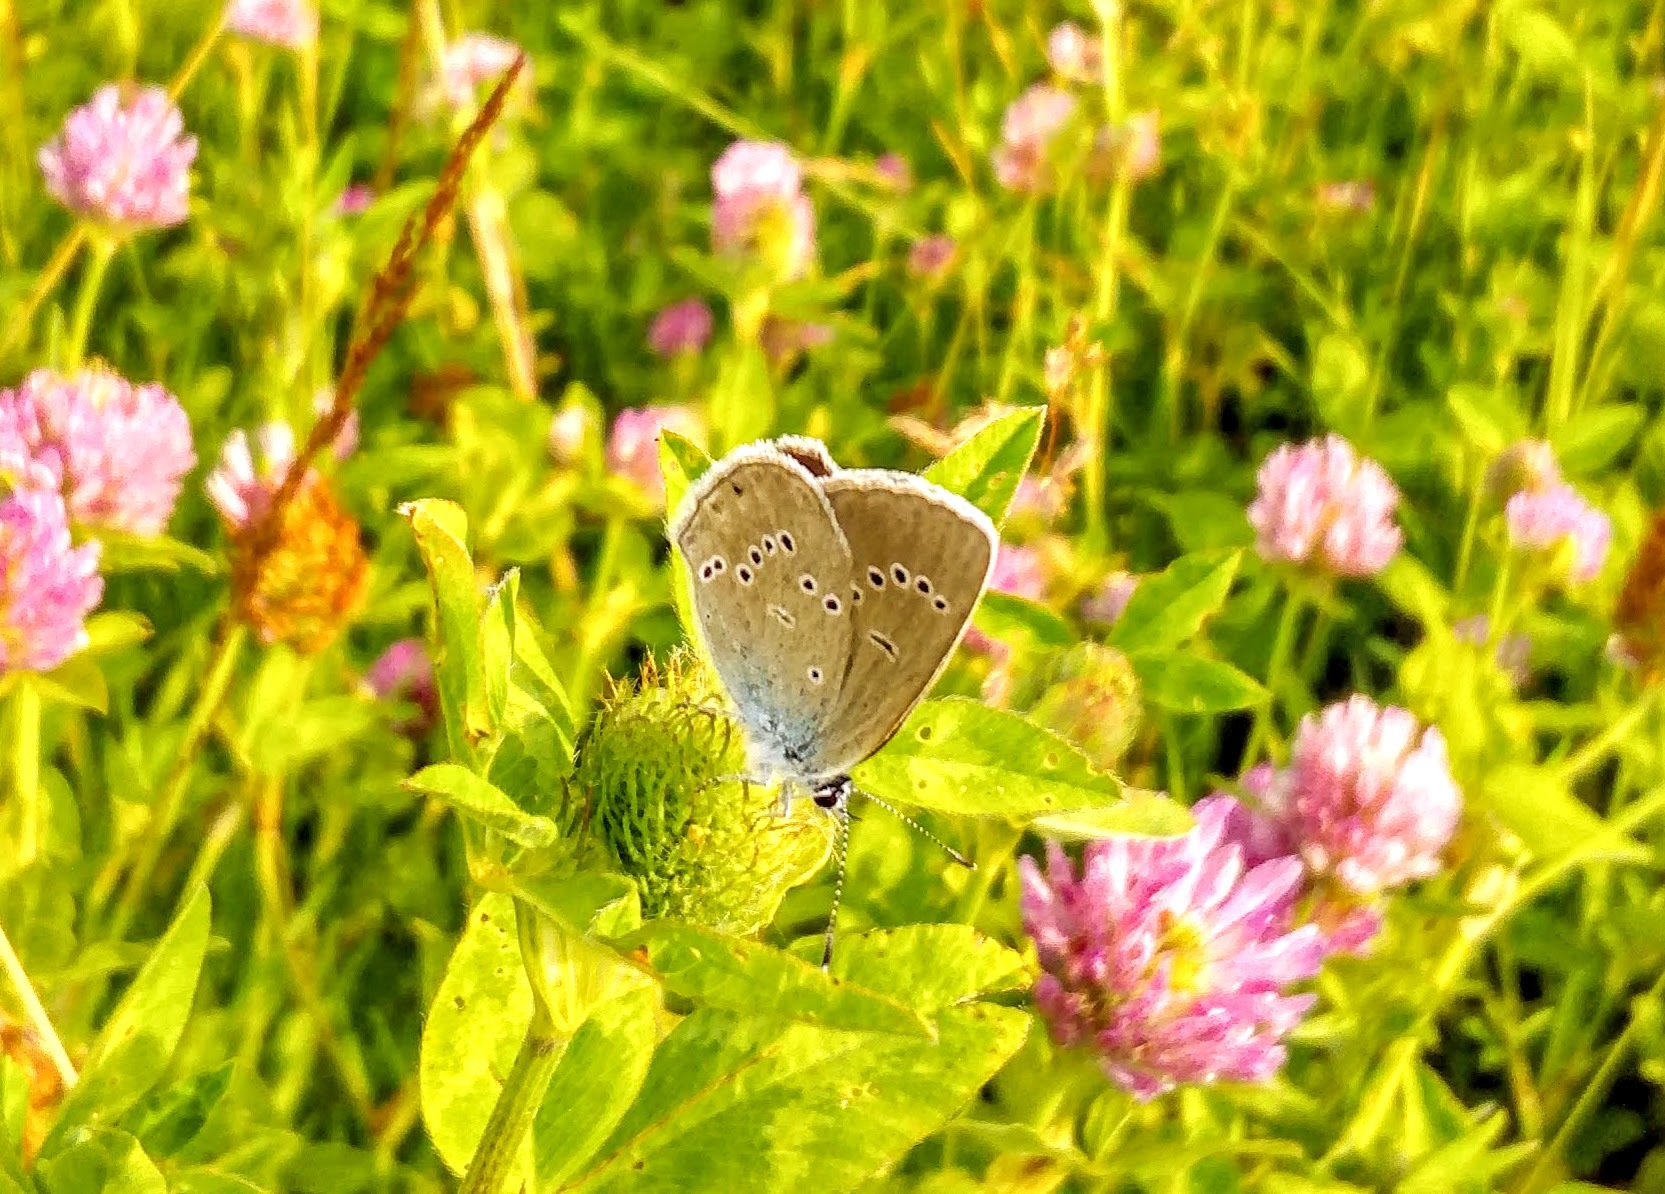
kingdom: Animalia
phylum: Arthropoda
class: Insecta
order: Lepidoptera
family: Lycaenidae
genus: Cyaniris
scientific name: Cyaniris semiargus
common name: Mazarine blue
